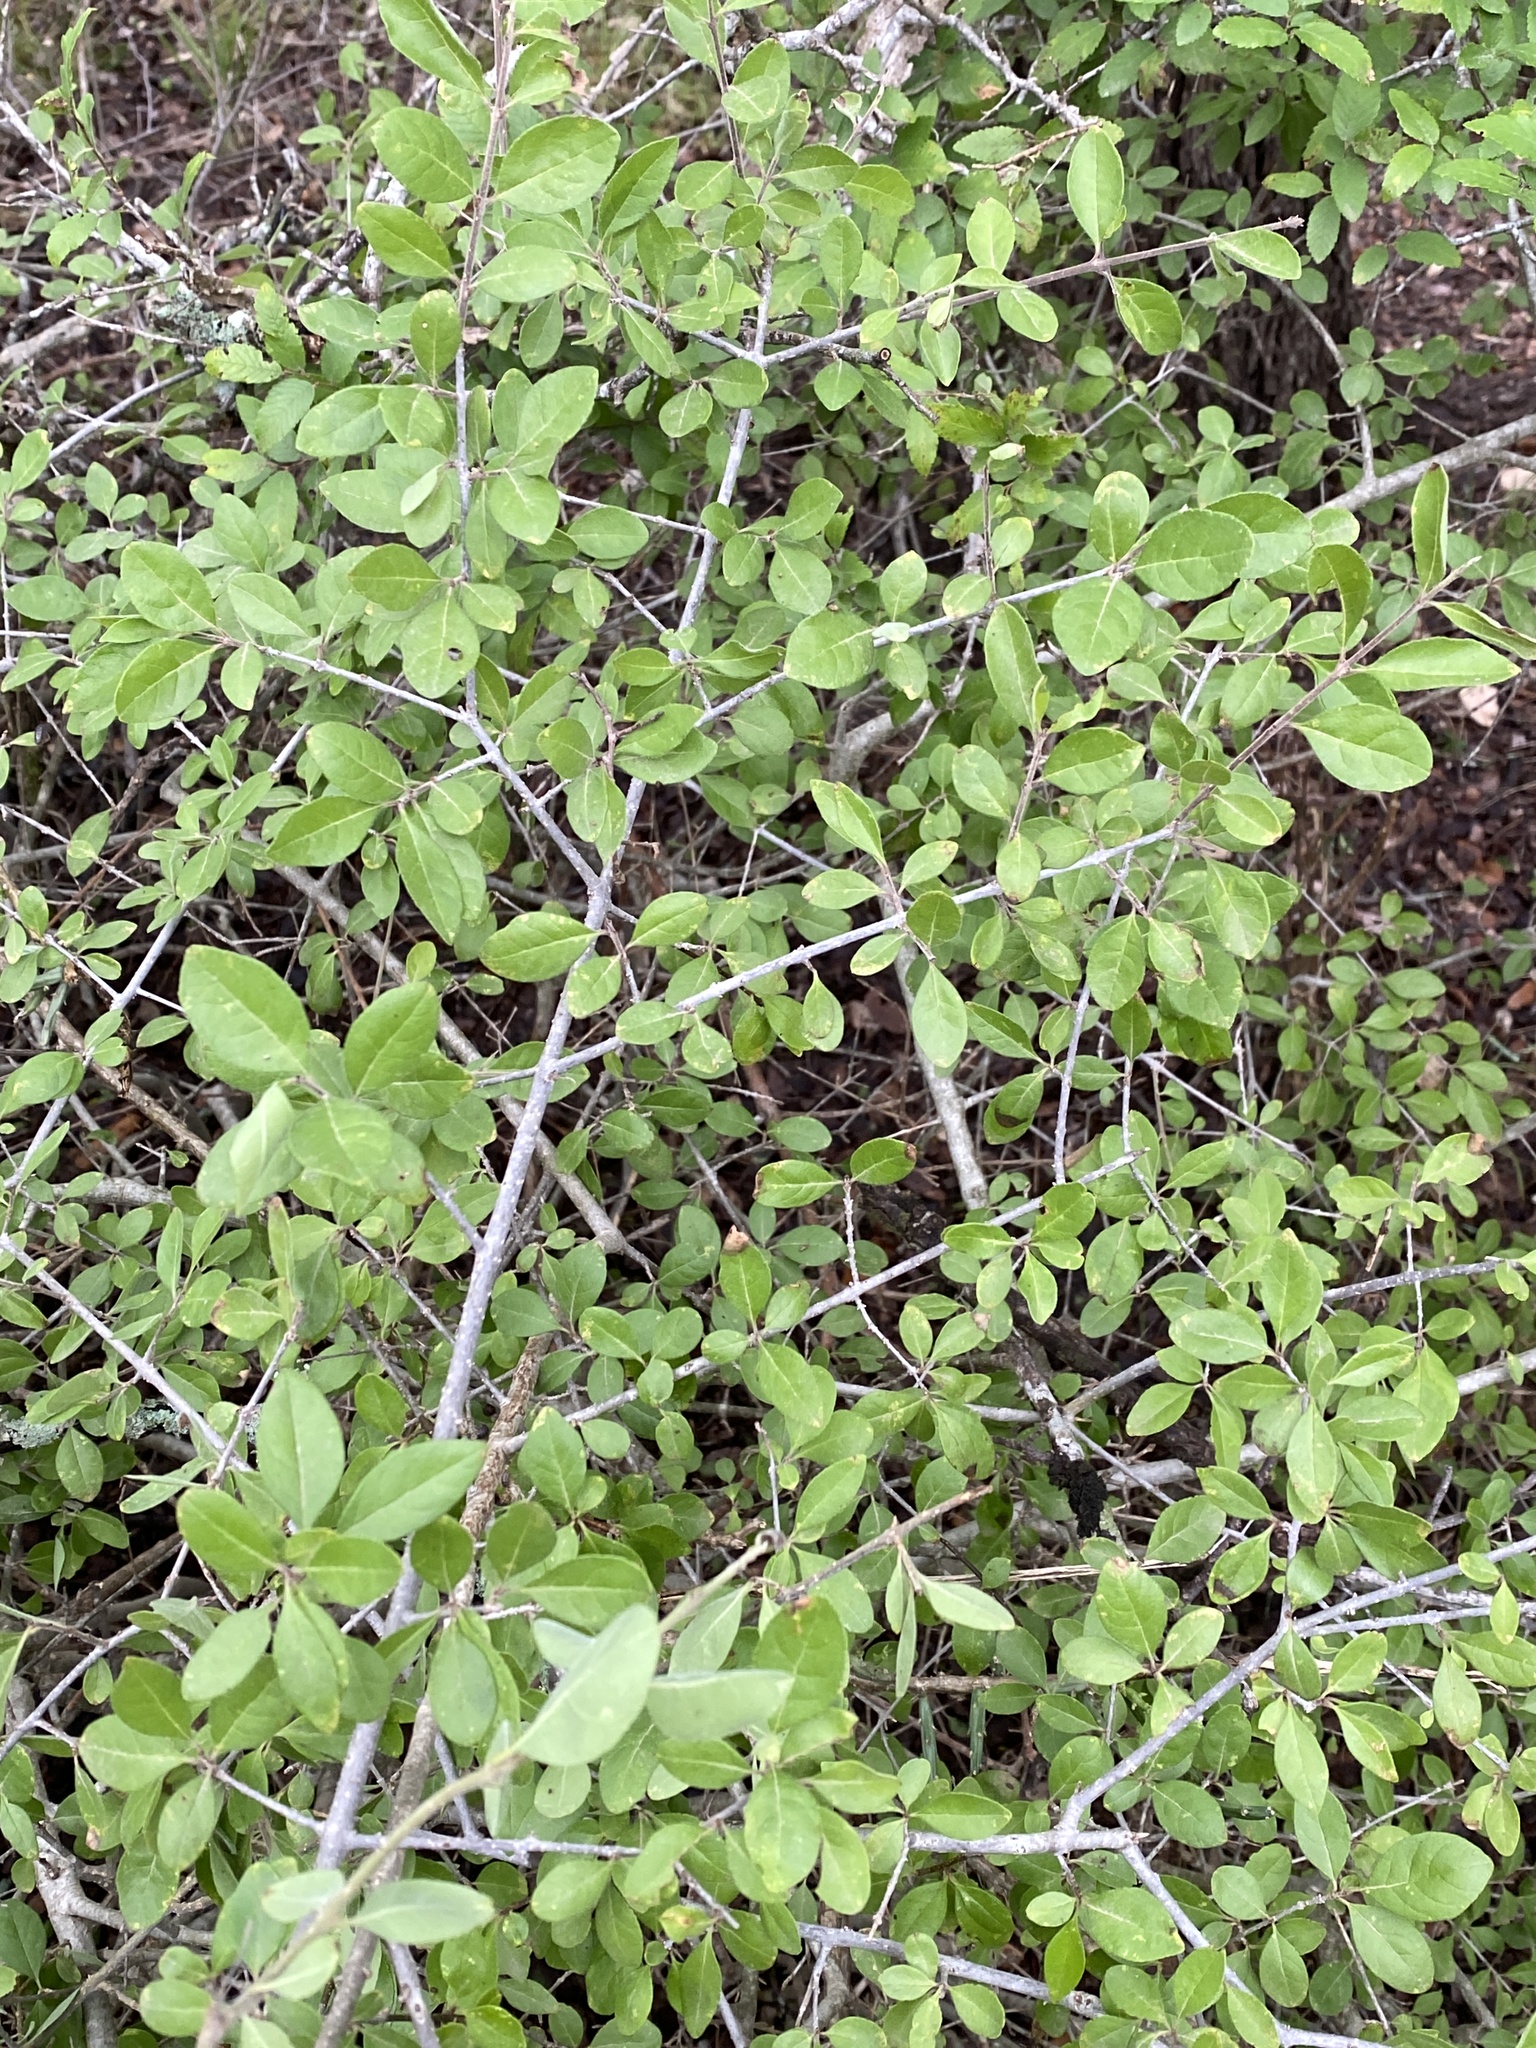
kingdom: Plantae
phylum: Tracheophyta
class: Magnoliopsida
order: Lamiales
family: Oleaceae
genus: Forestiera
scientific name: Forestiera pubescens
